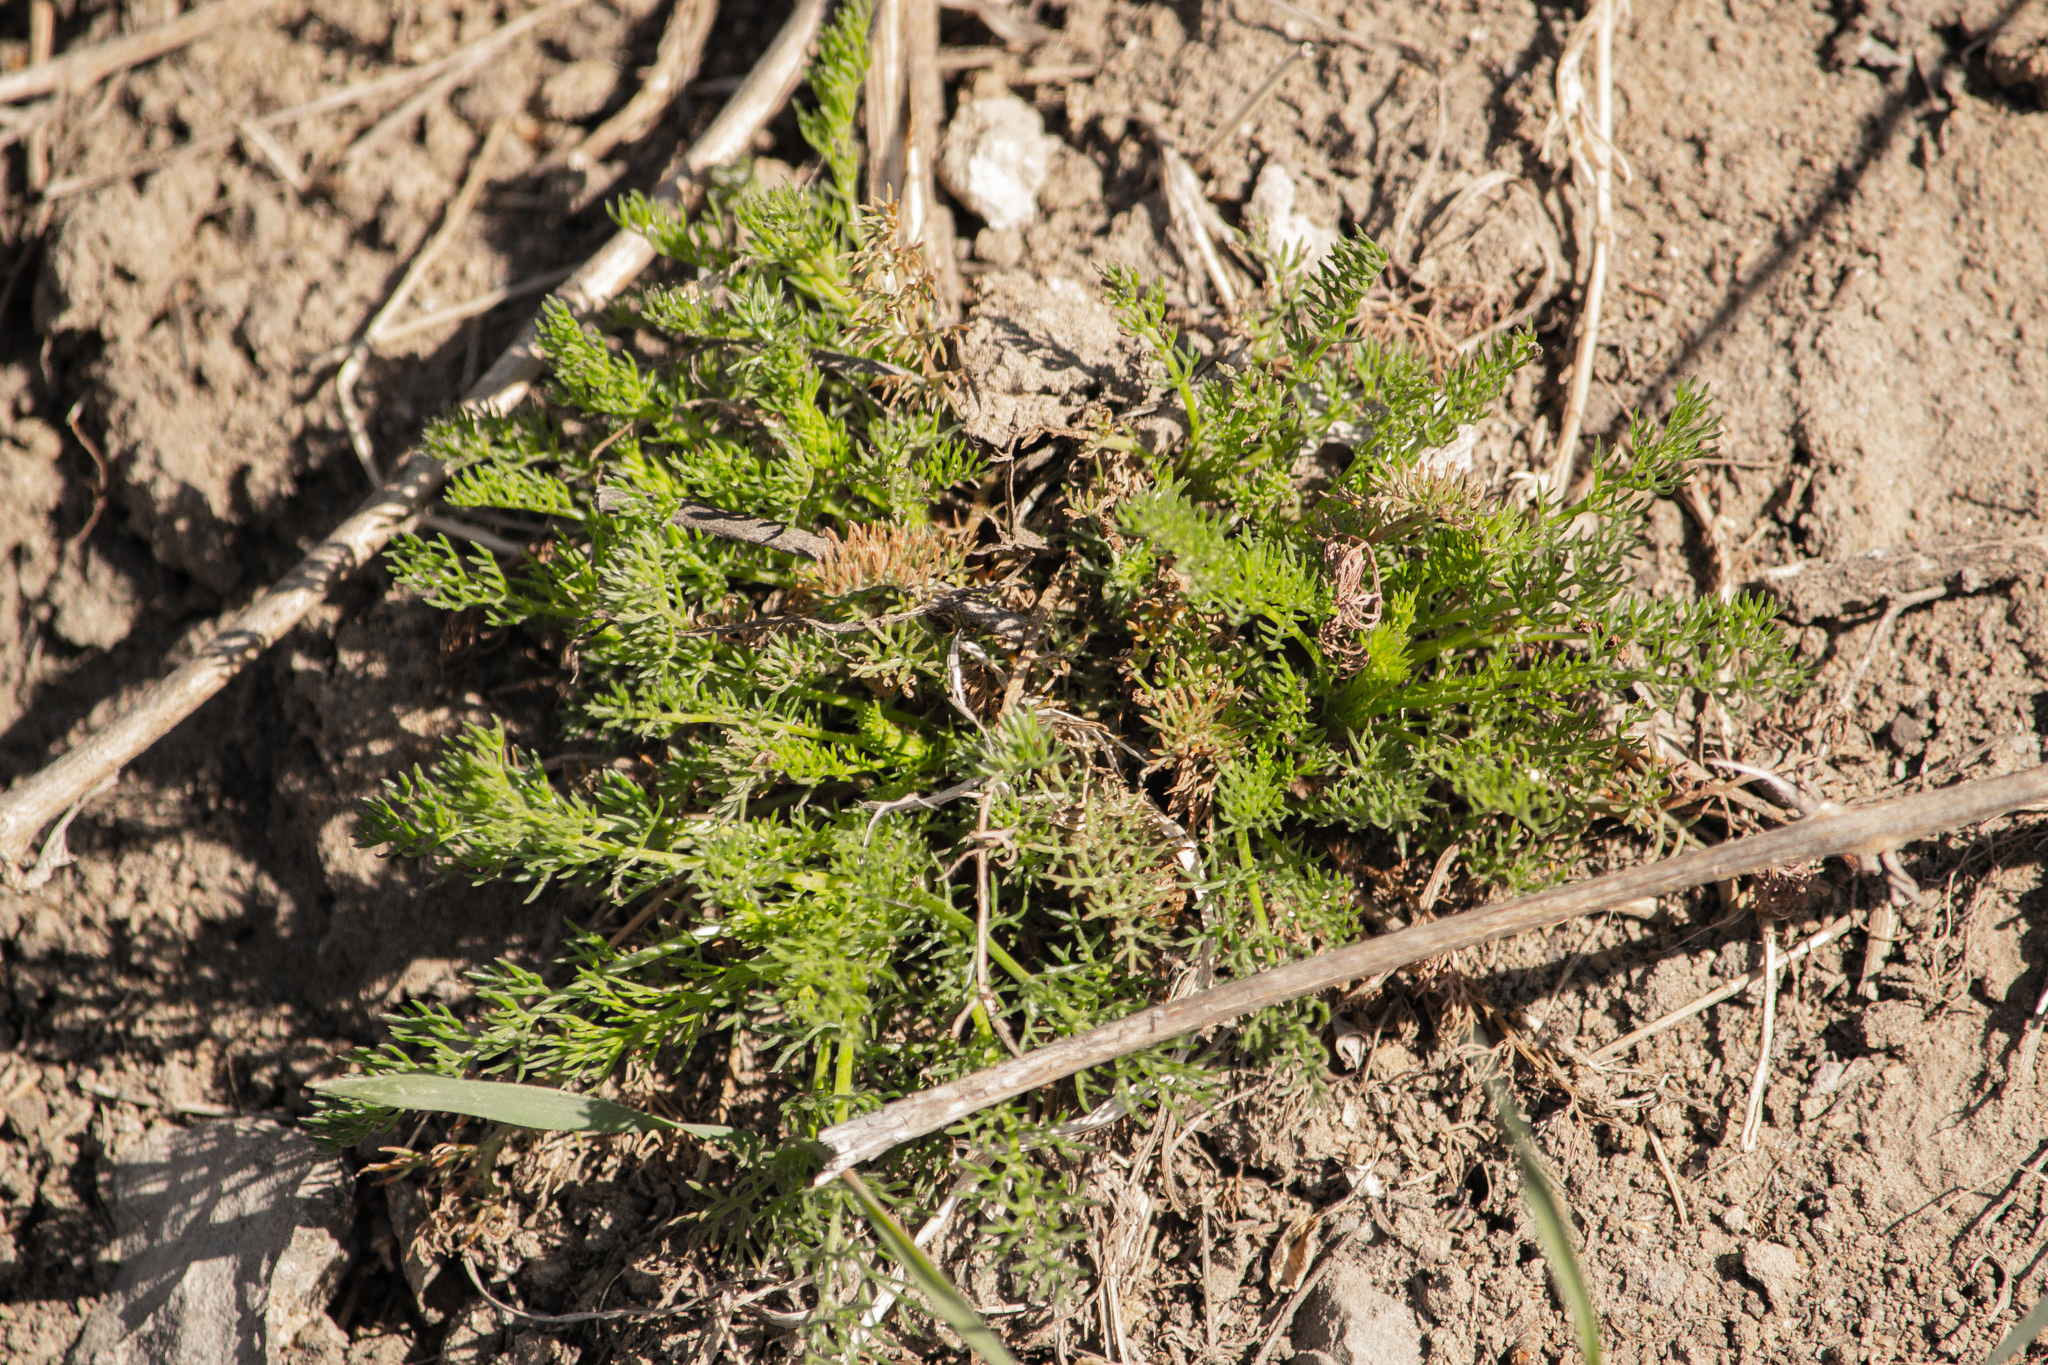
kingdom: Plantae
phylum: Tracheophyta
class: Magnoliopsida
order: Asterales
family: Asteraceae
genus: Tripleurospermum
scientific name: Tripleurospermum inodorum
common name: Scentless mayweed
